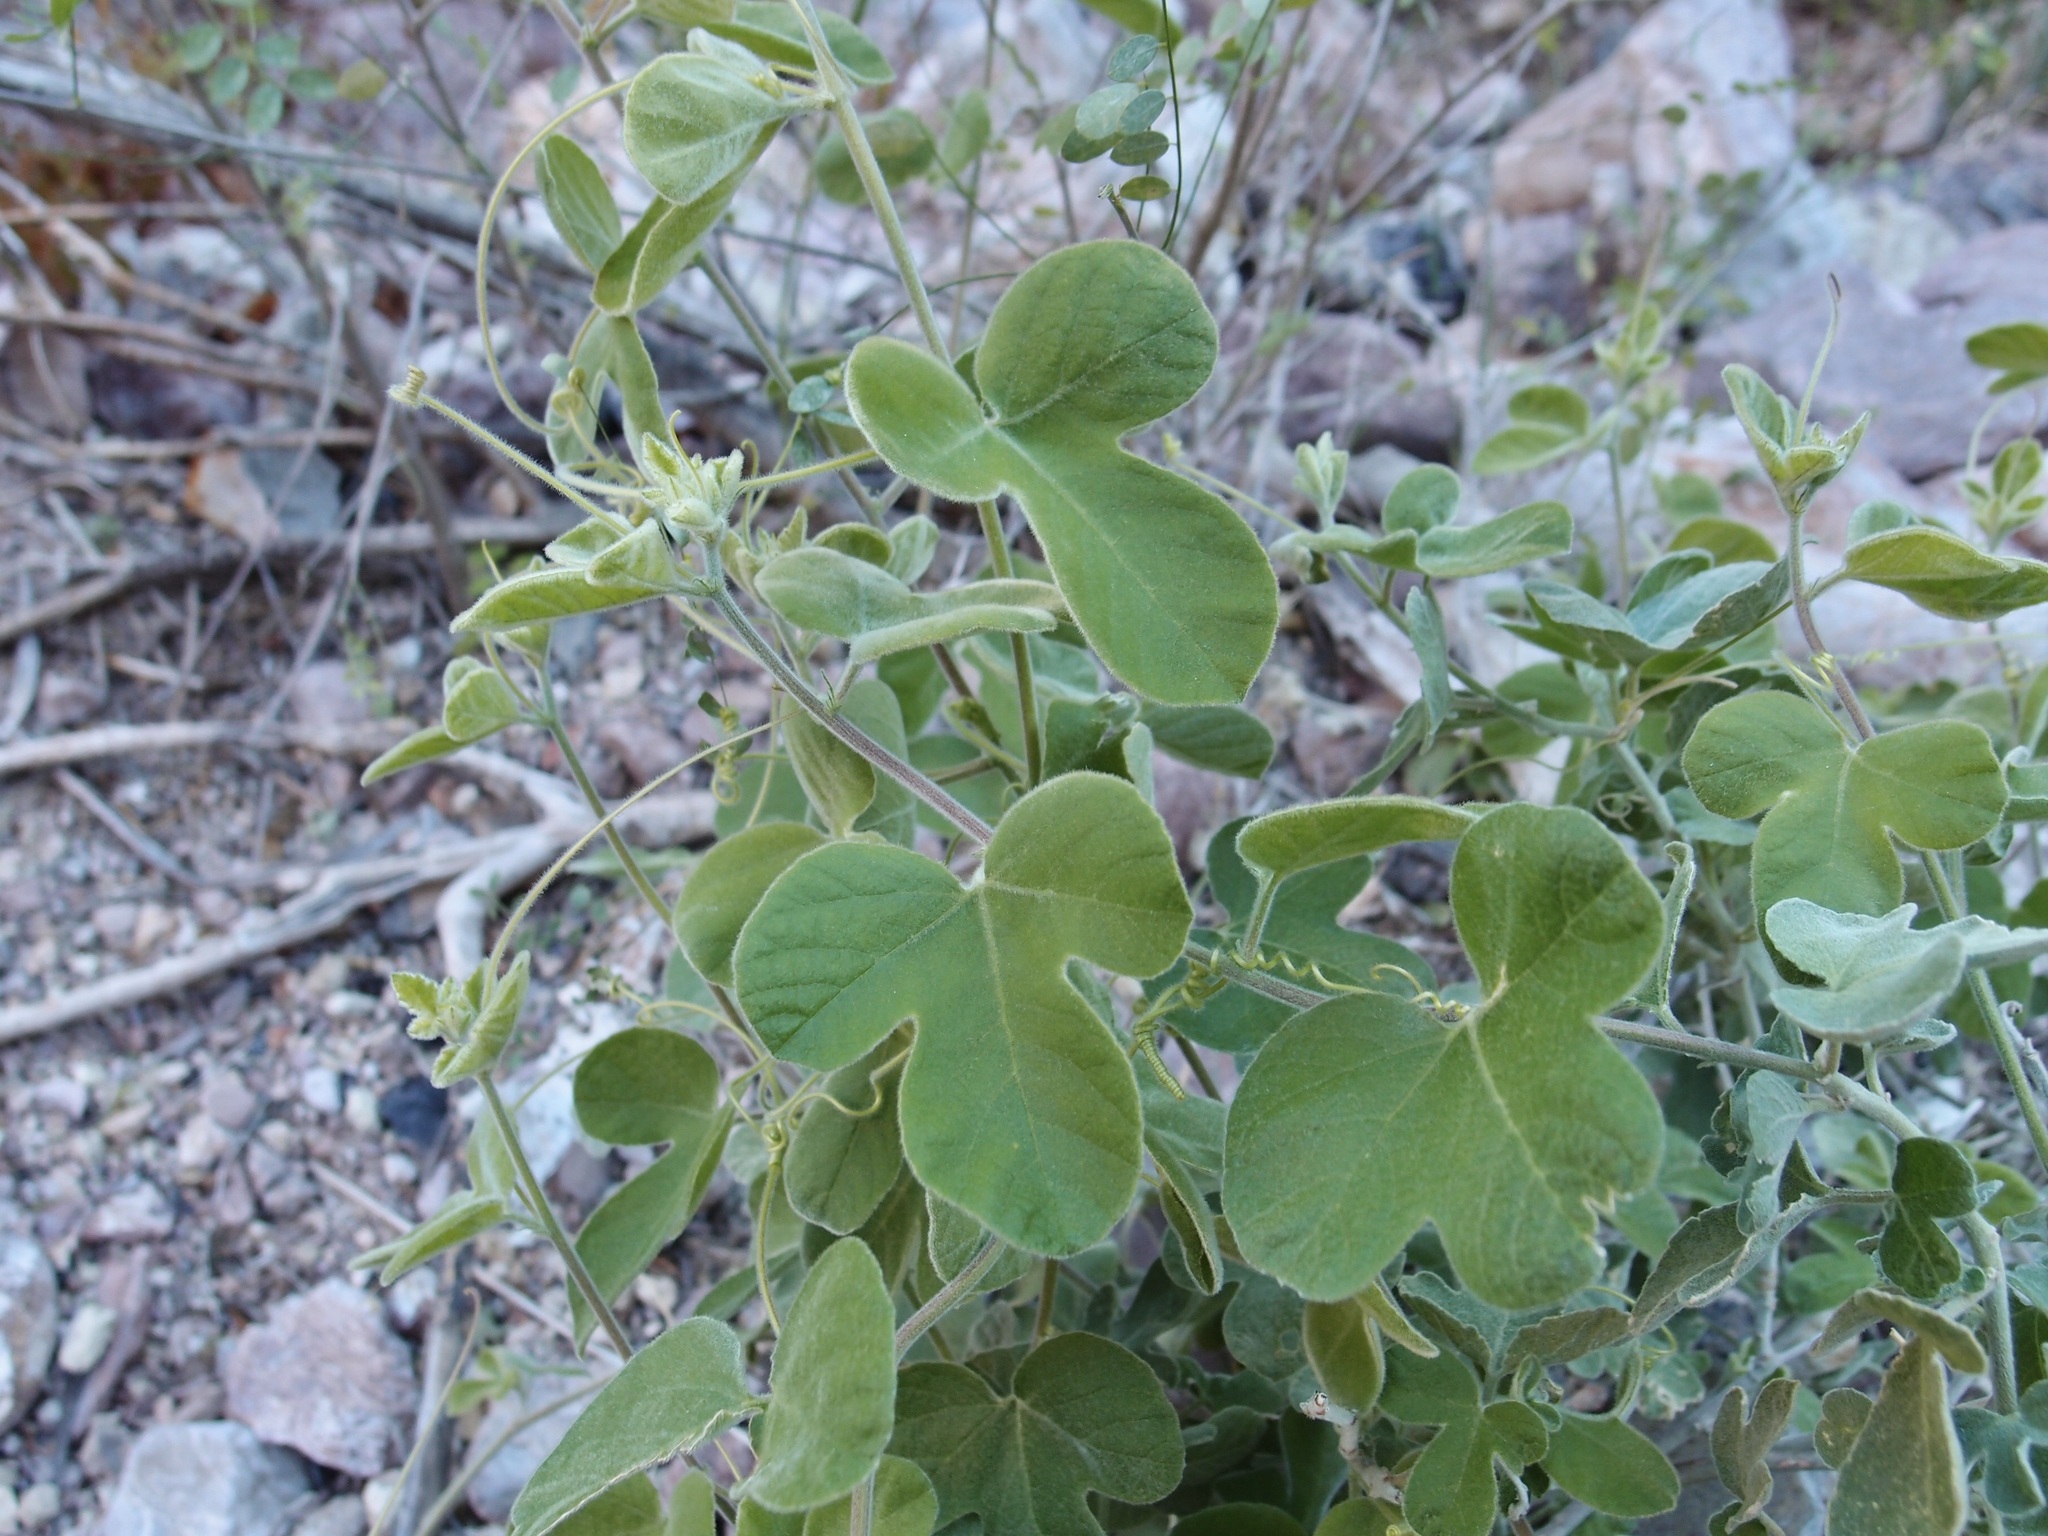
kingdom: Plantae
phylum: Tracheophyta
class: Magnoliopsida
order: Malpighiales
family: Passifloraceae
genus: Passiflora
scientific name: Passiflora arida
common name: Desert passionflower
